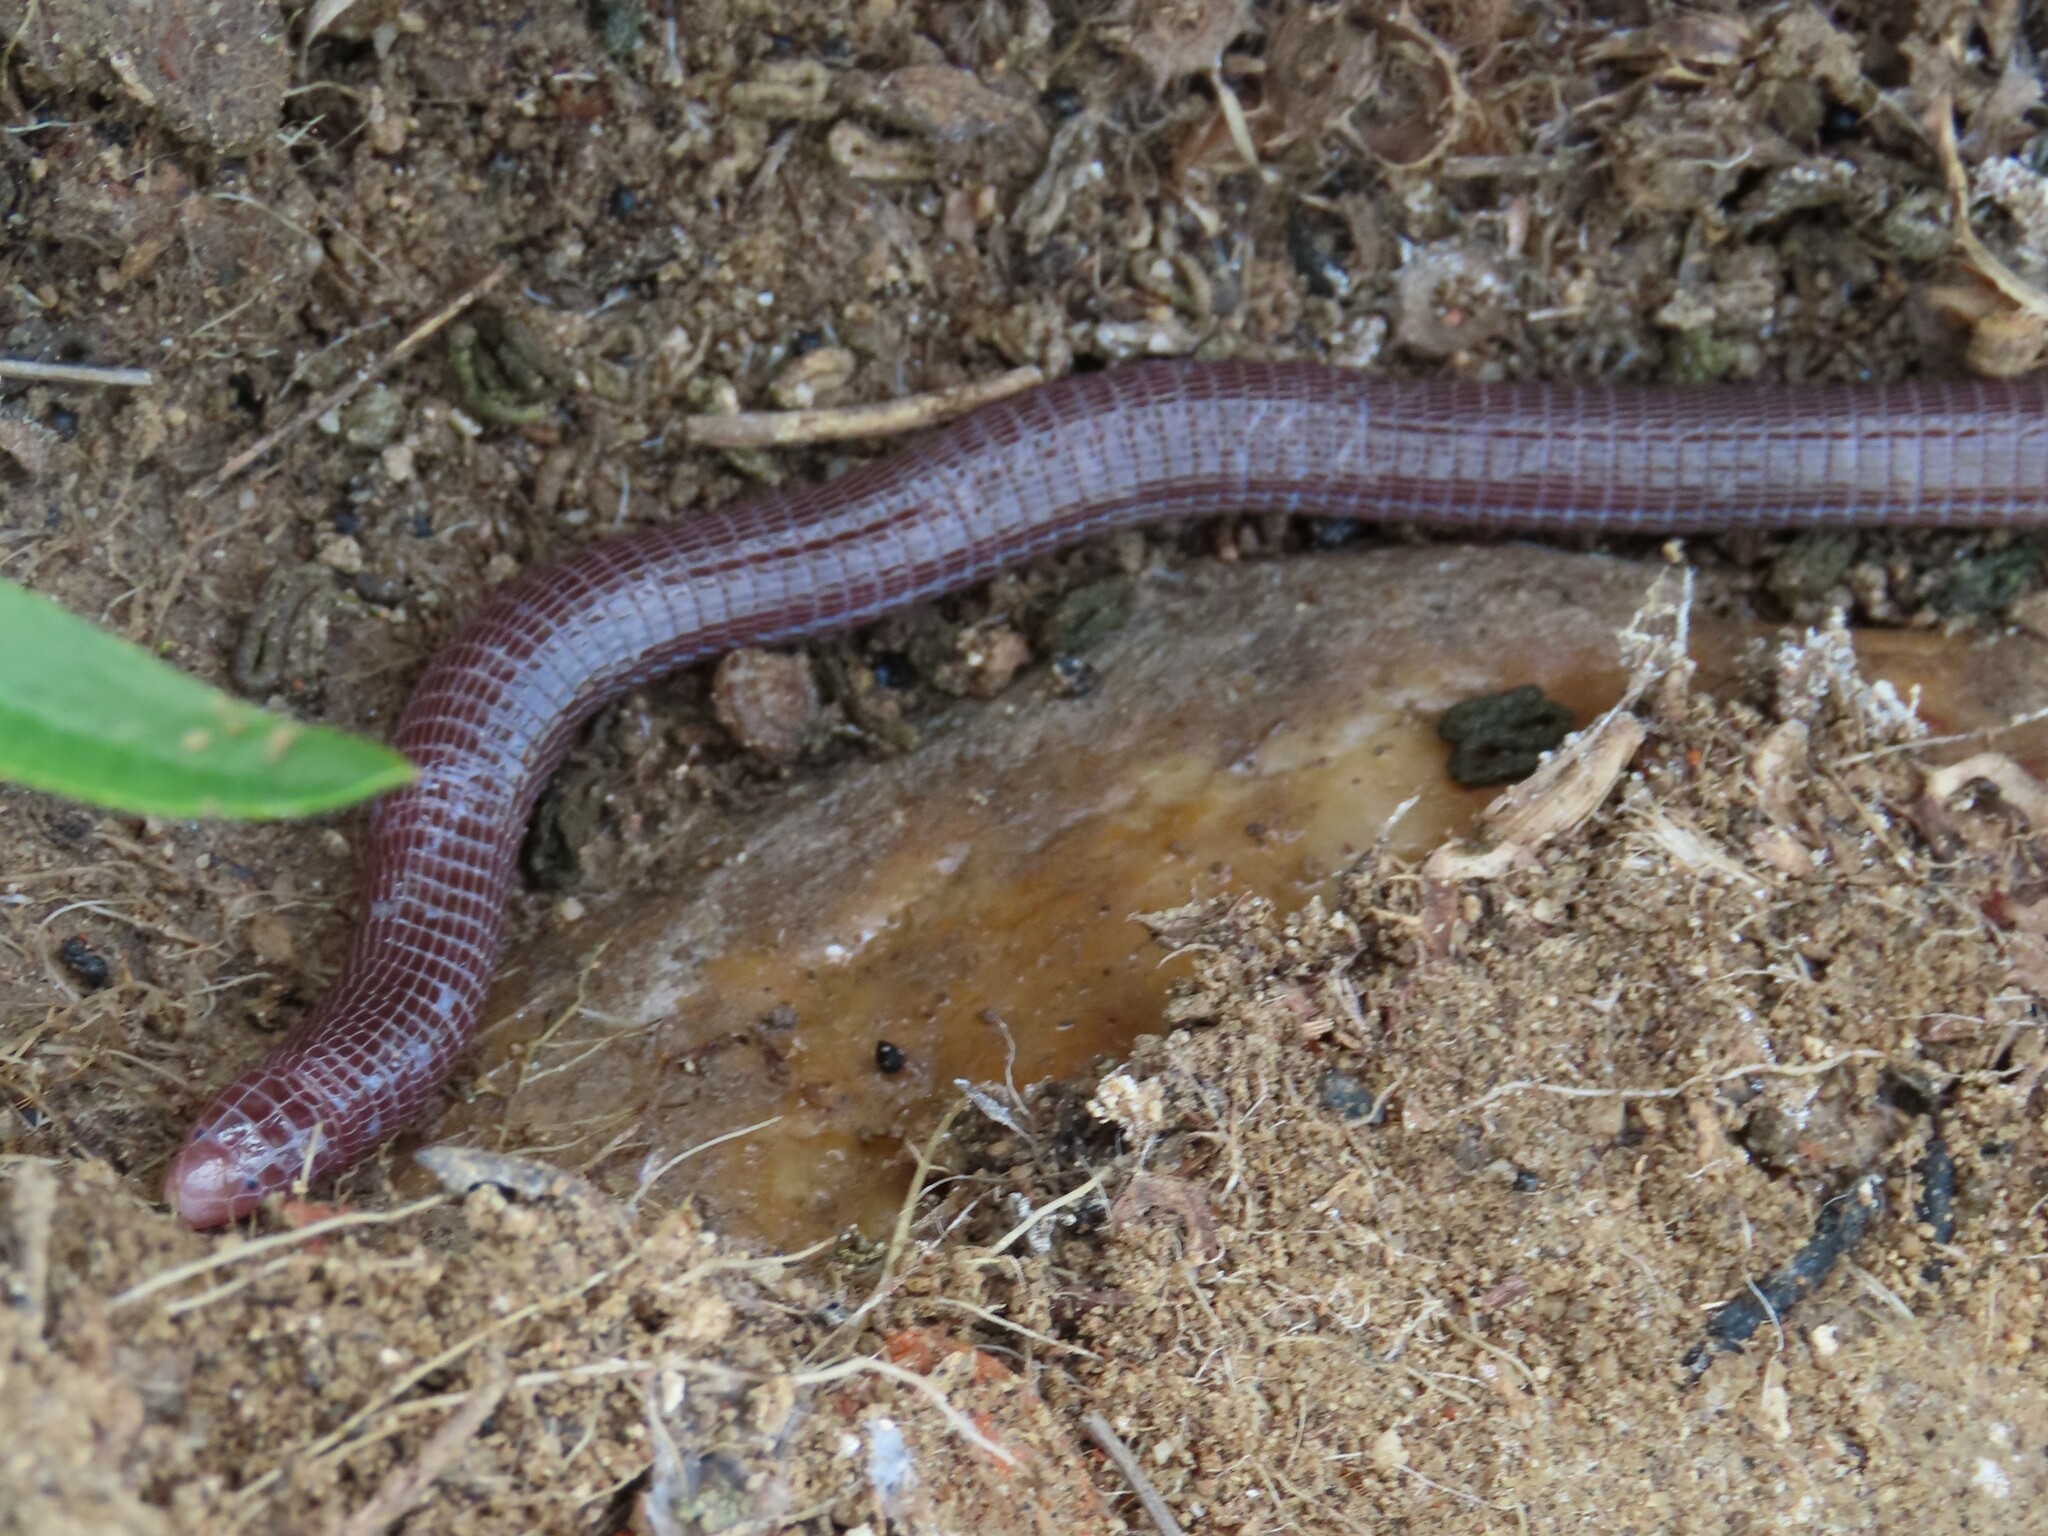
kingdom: Animalia
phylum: Chordata
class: Squamata
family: Blanidae
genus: Blanus
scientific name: Blanus vandellii
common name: Vandelli's worm lizard
